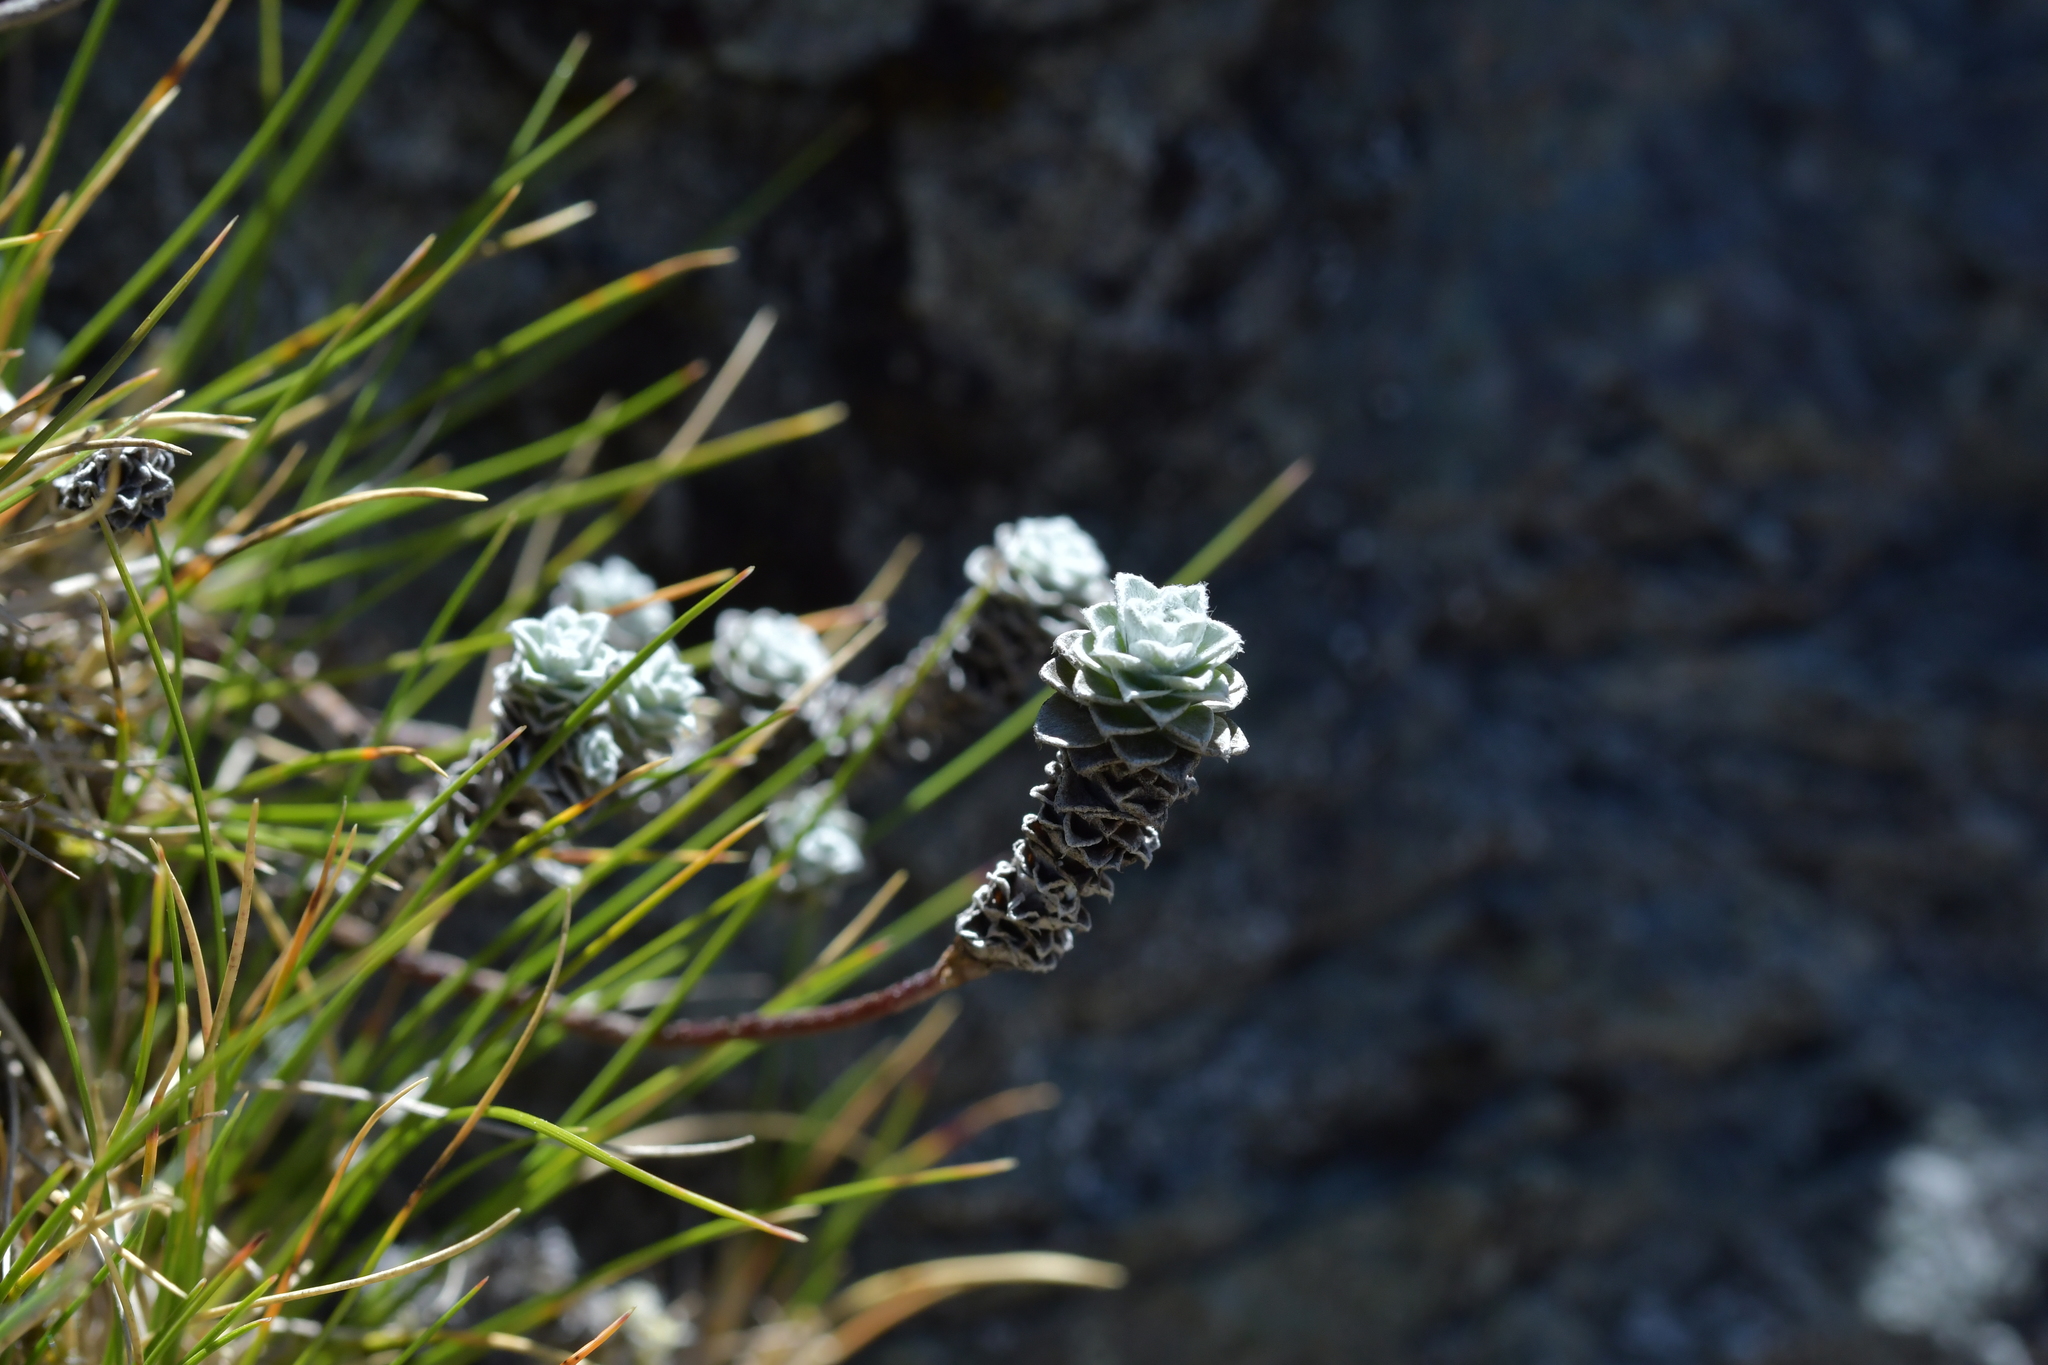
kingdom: Plantae
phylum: Tracheophyta
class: Magnoliopsida
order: Asterales
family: Asteraceae
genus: Leucogenes
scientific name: Leucogenes grandiceps
